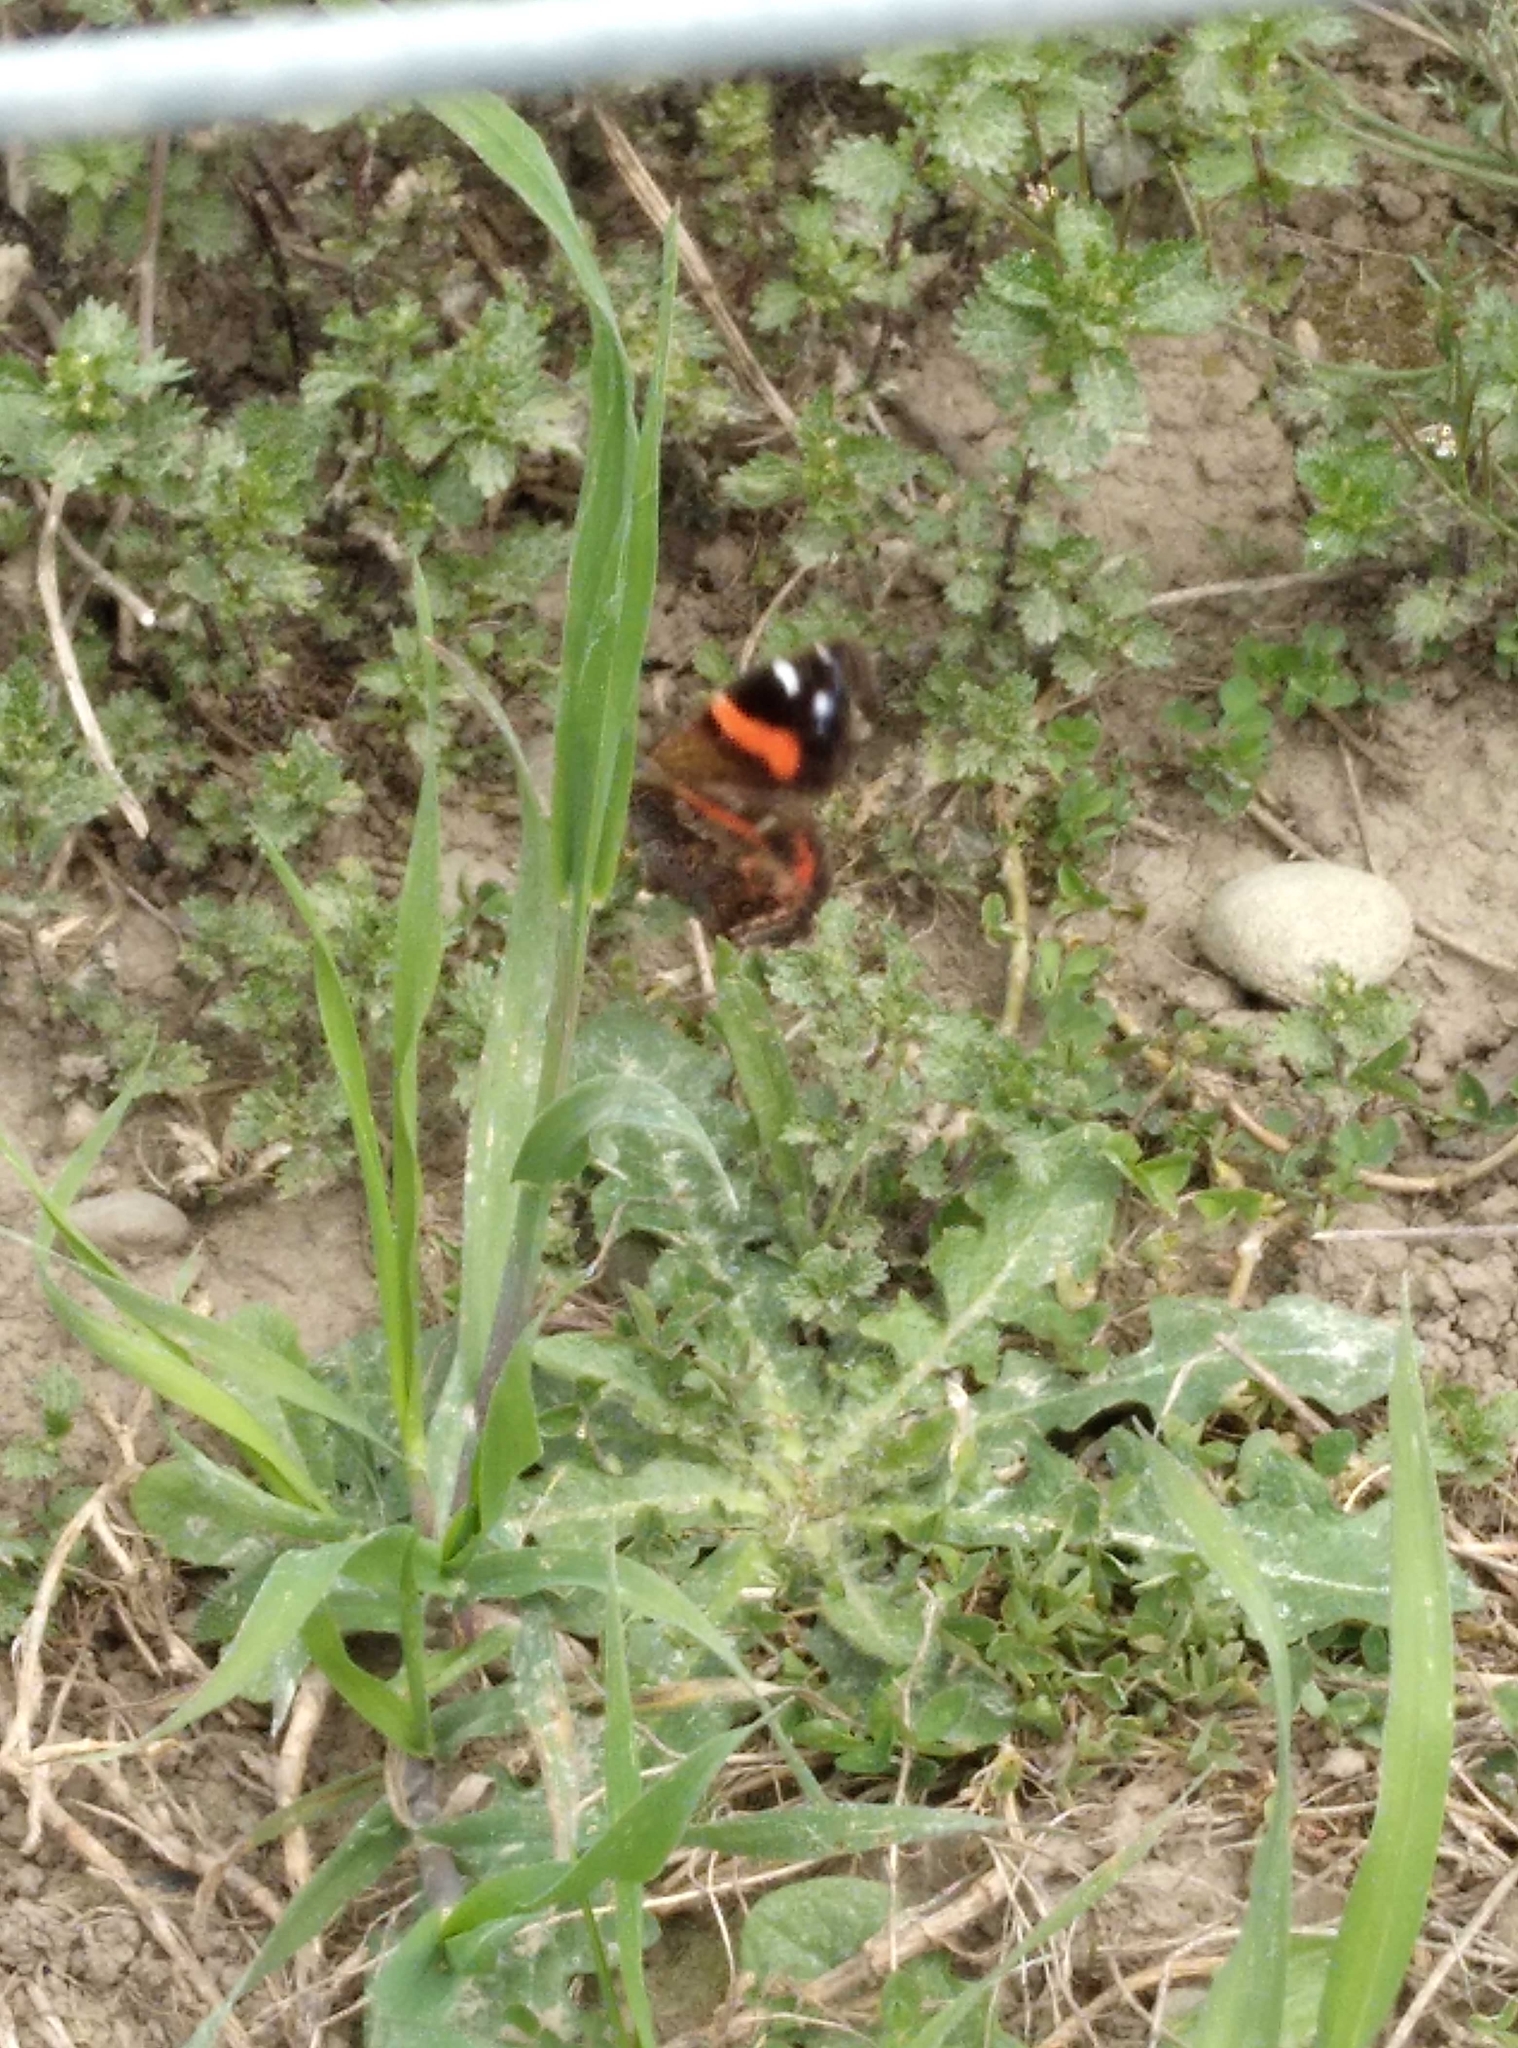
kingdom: Animalia
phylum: Arthropoda
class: Insecta
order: Lepidoptera
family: Nymphalidae
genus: Vanessa
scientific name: Vanessa gonerilla
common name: New zealand red admiral
